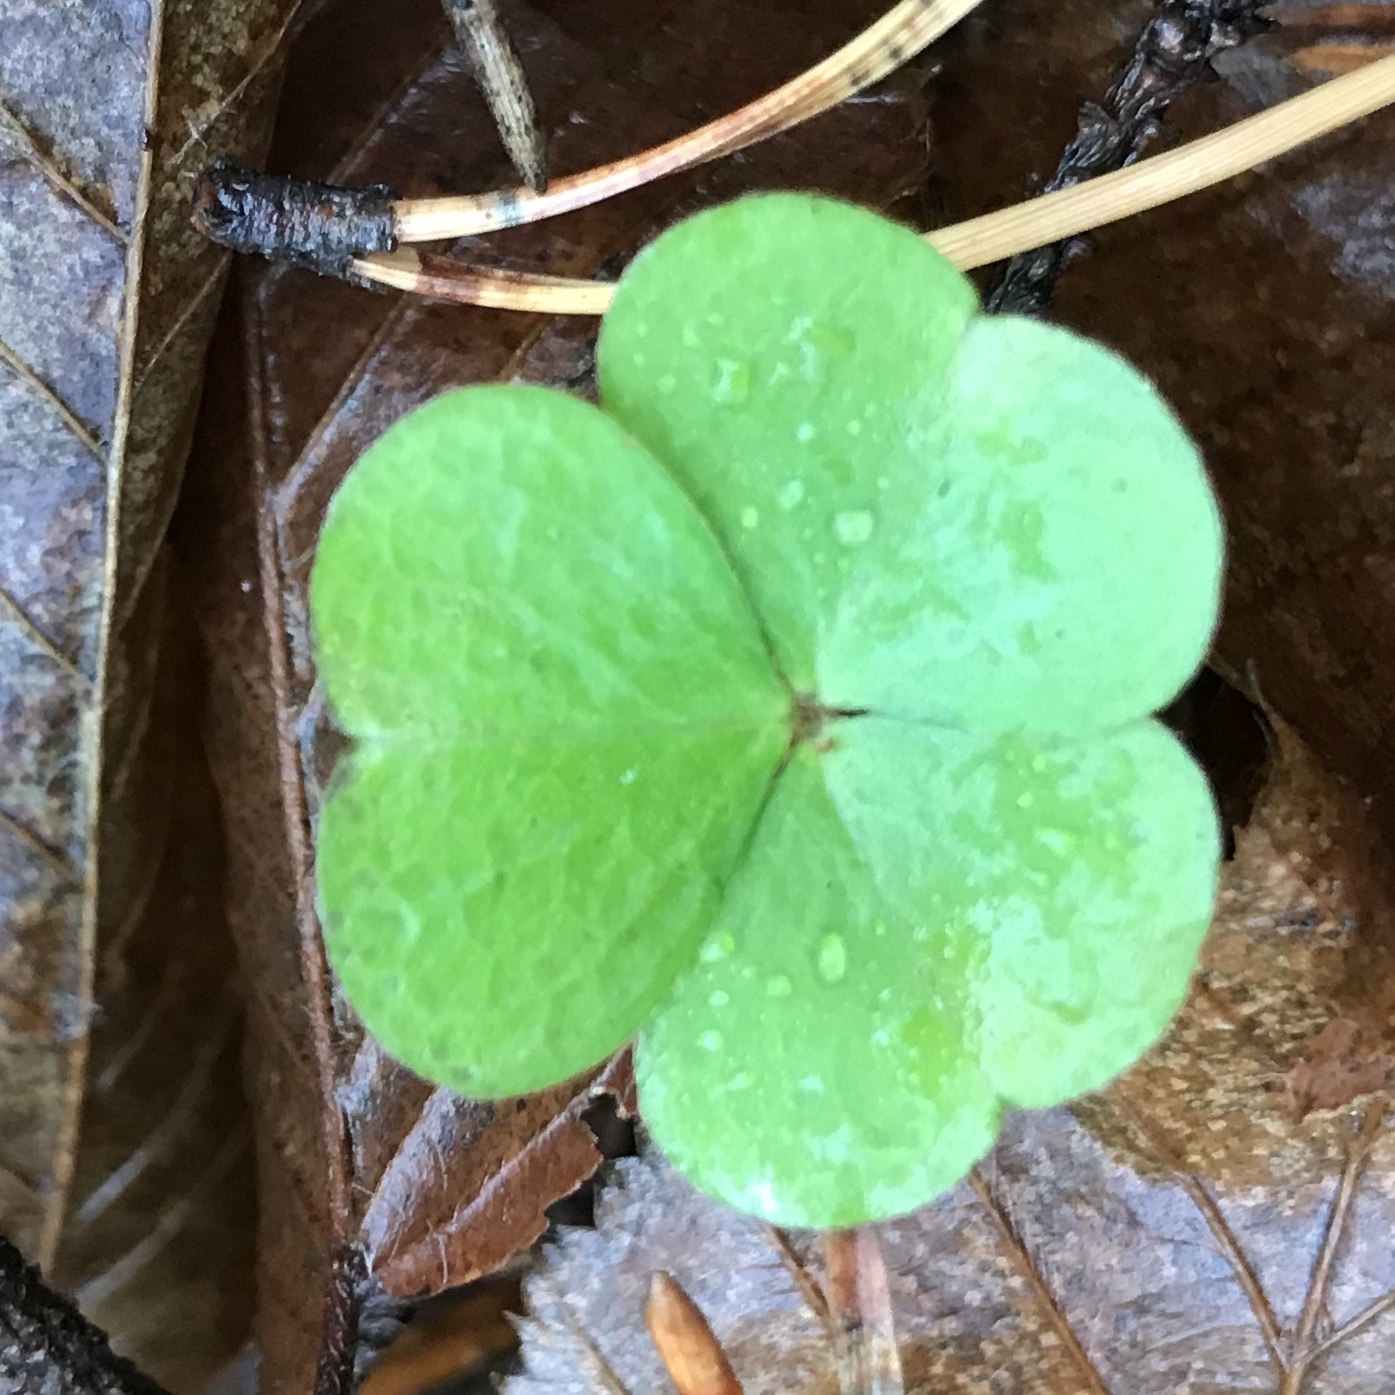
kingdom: Plantae
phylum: Tracheophyta
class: Magnoliopsida
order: Oxalidales
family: Oxalidaceae
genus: Oxalis
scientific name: Oxalis acetosella
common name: Wood-sorrel
